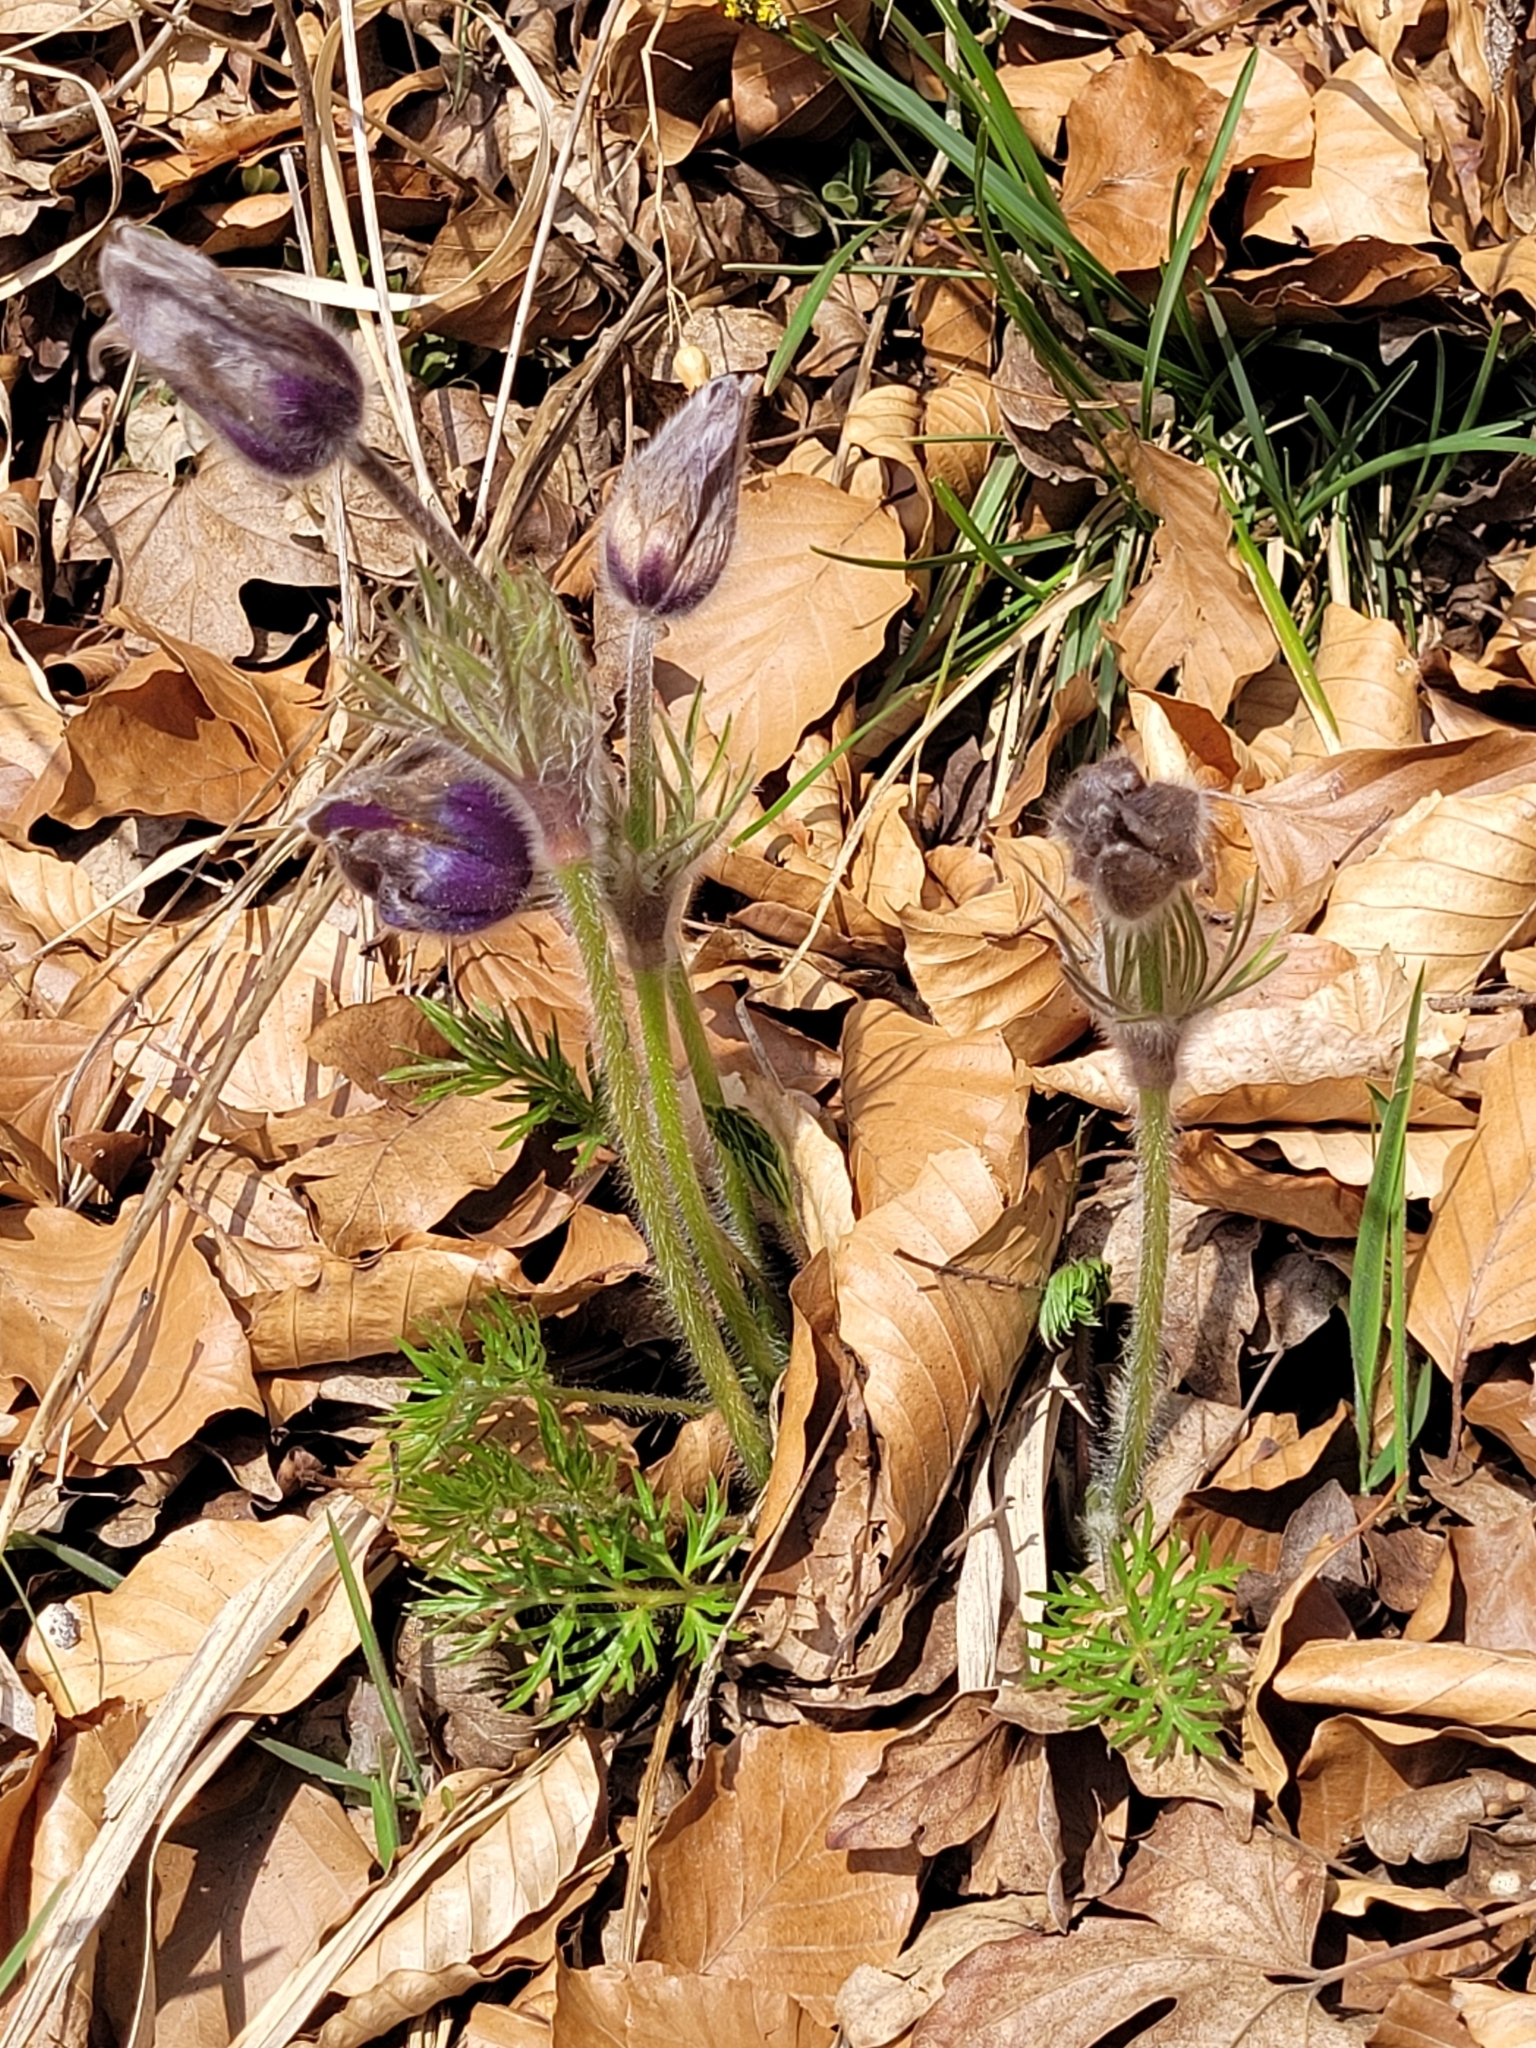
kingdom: Plantae
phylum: Tracheophyta
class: Magnoliopsida
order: Ranunculales
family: Ranunculaceae
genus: Pulsatilla
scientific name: Pulsatilla vulgaris
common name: Pasqueflower
